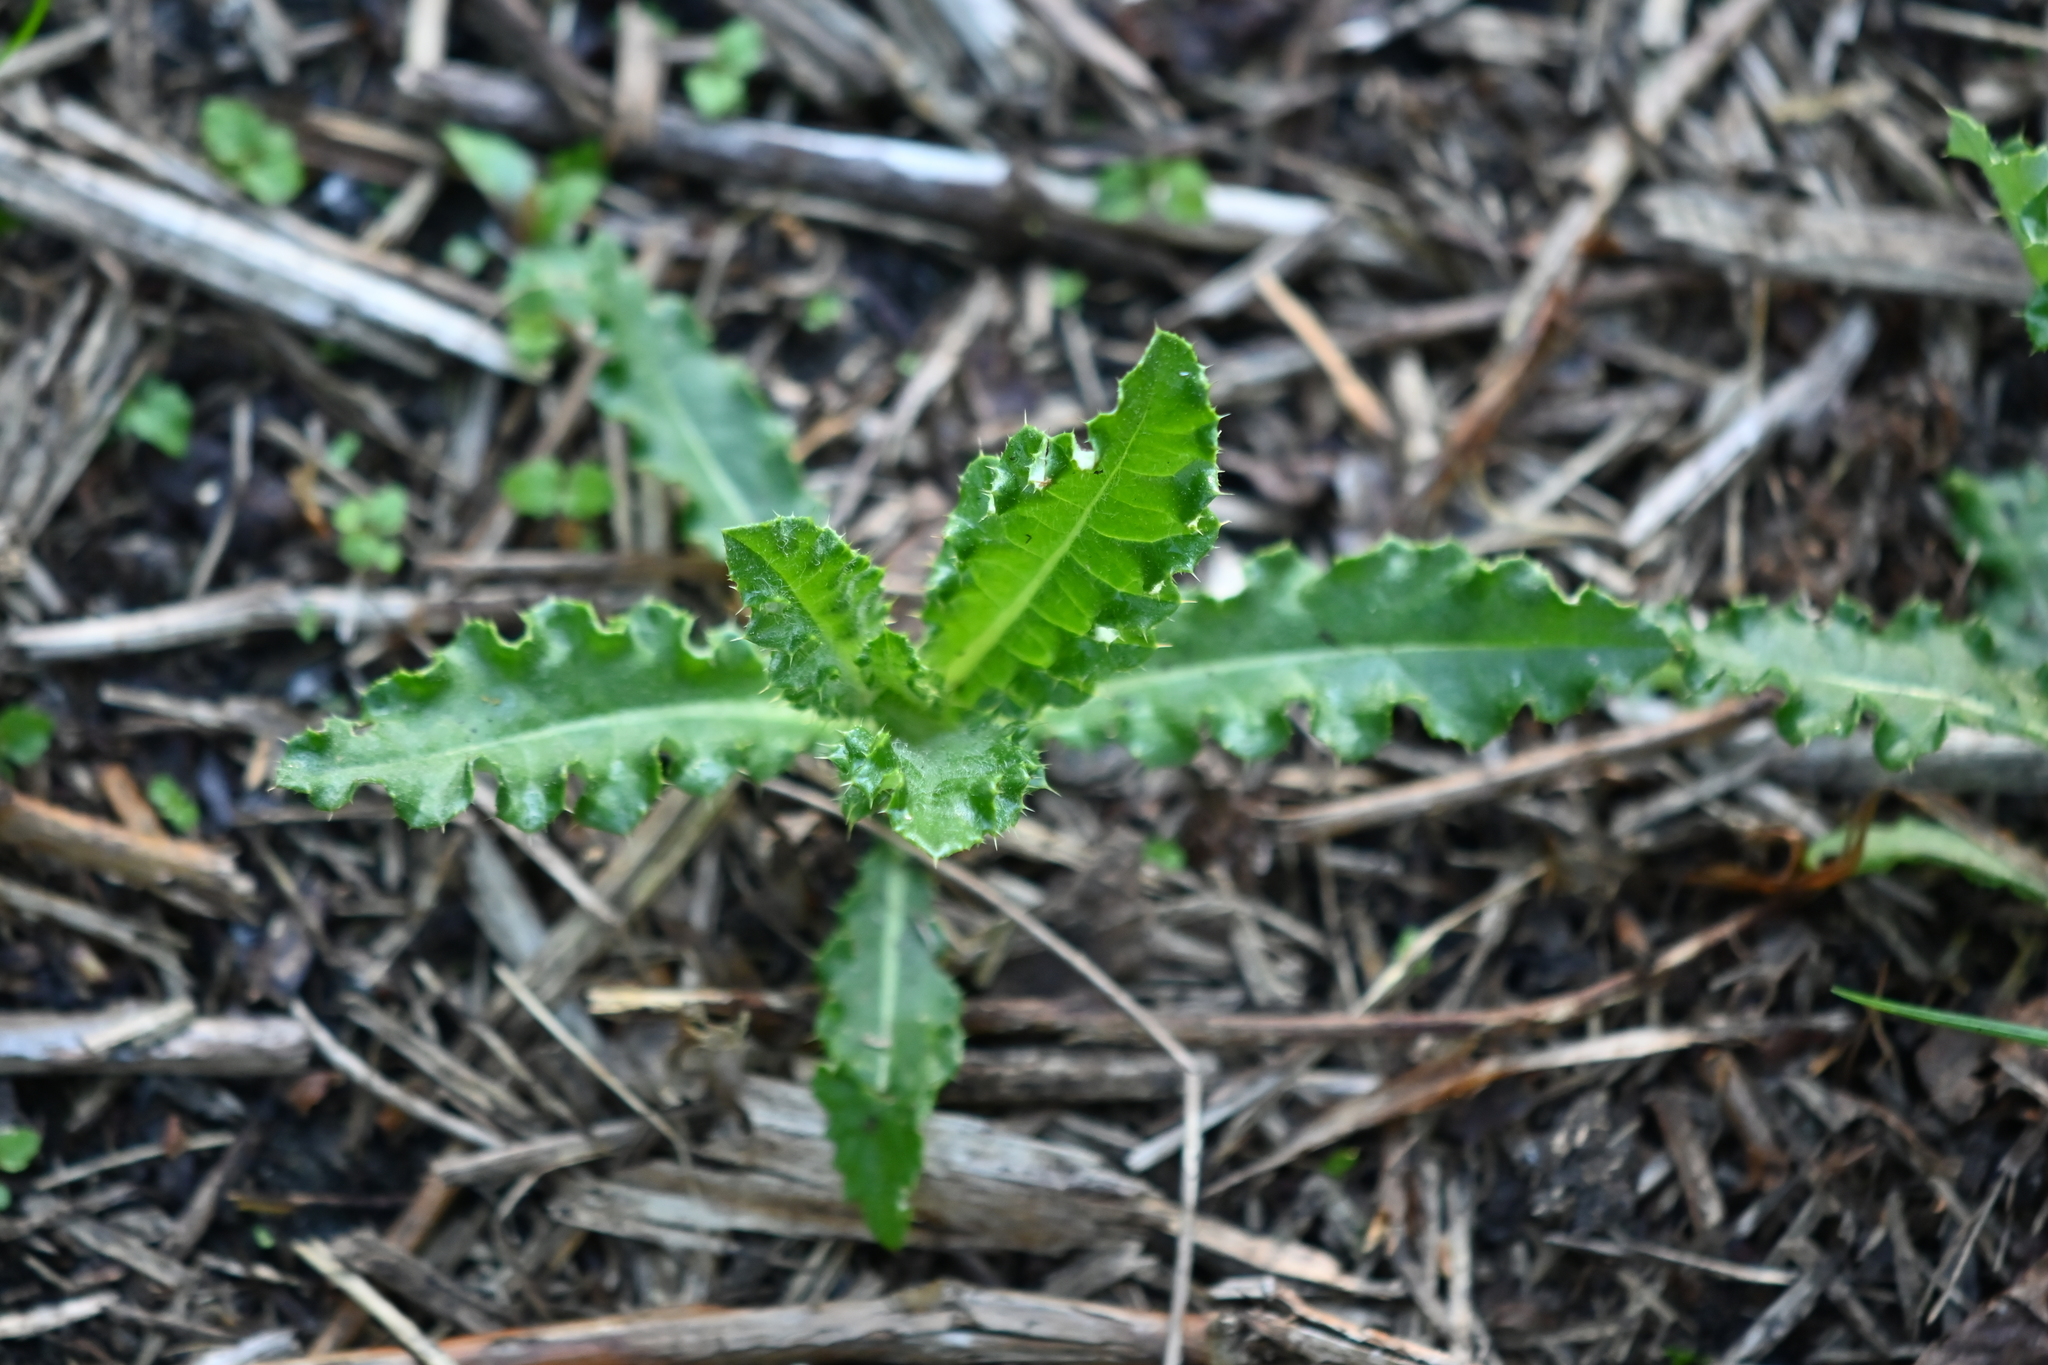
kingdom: Plantae
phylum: Tracheophyta
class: Magnoliopsida
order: Asterales
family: Asteraceae
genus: Cirsium
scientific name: Cirsium arvense
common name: Creeping thistle
